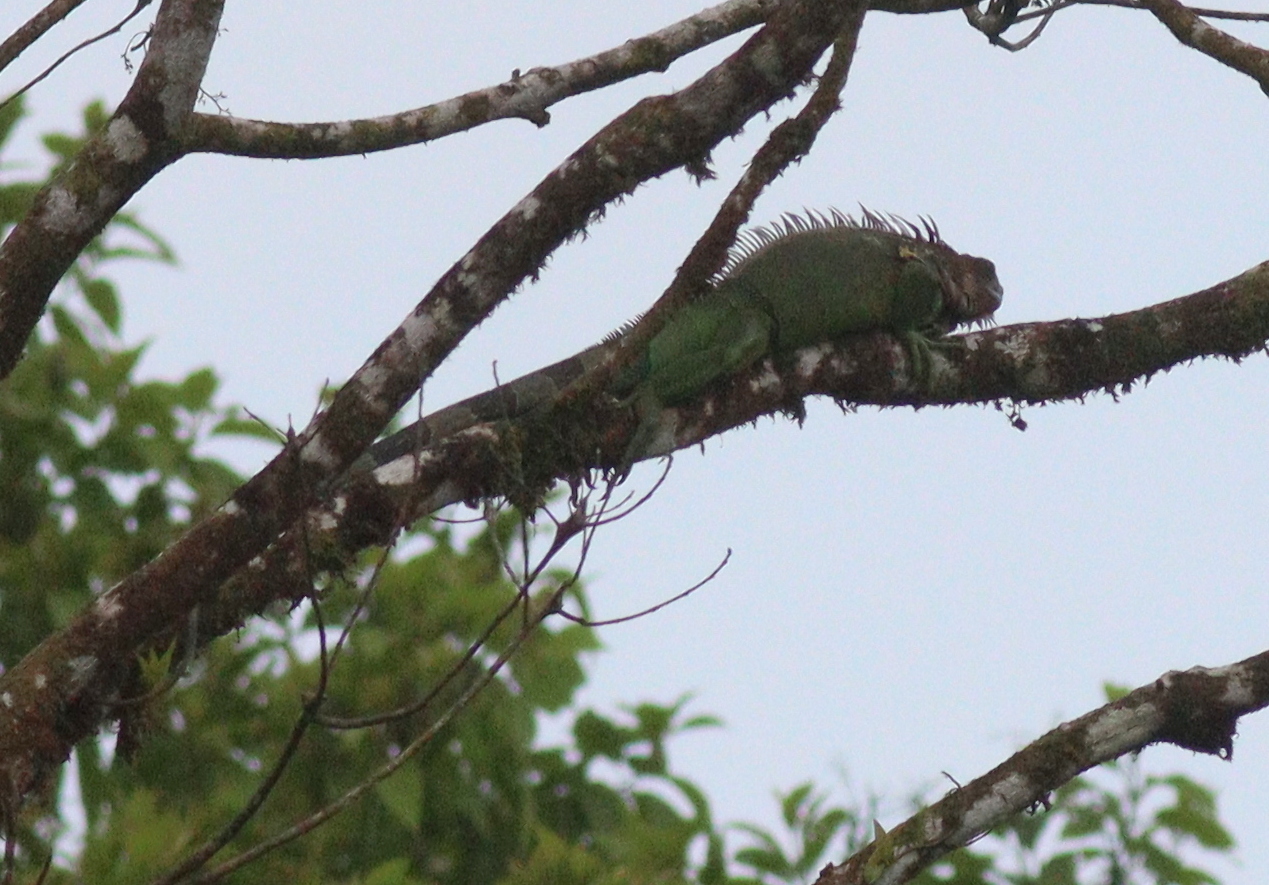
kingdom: Animalia
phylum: Chordata
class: Squamata
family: Iguanidae
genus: Iguana
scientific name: Iguana iguana
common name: Green iguana
